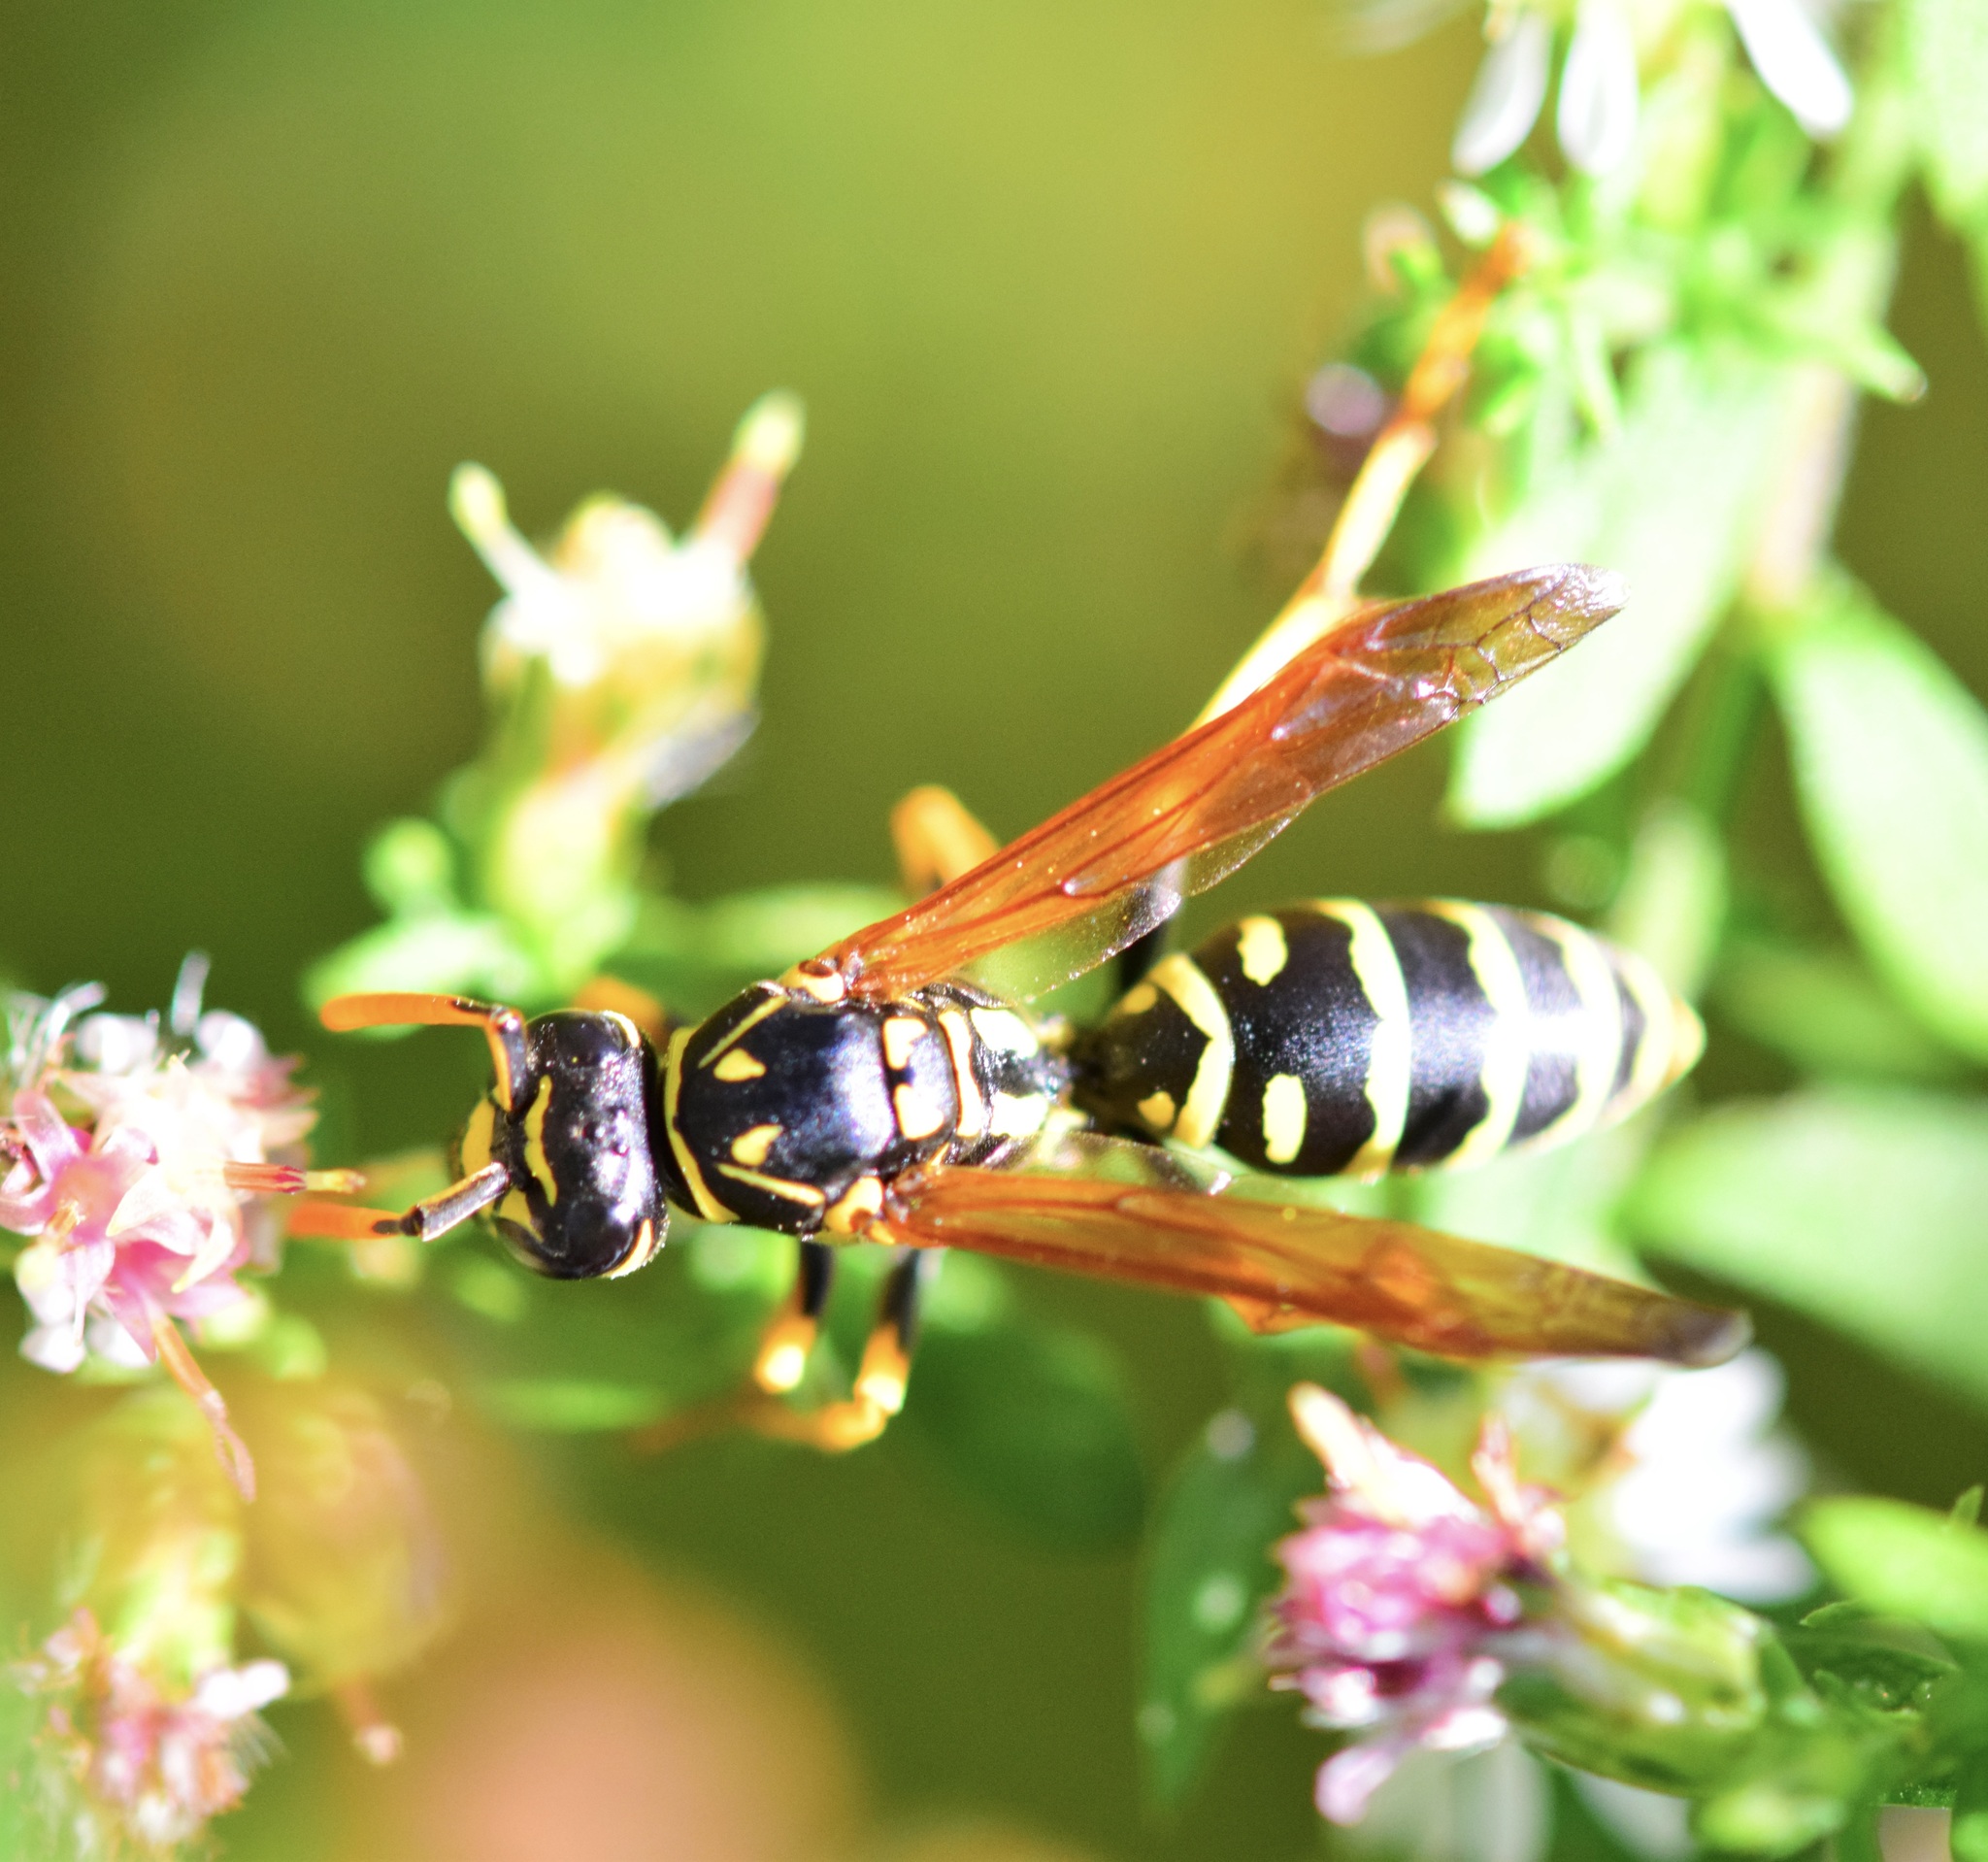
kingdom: Animalia
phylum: Arthropoda
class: Insecta
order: Hymenoptera
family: Eumenidae
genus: Polistes
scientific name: Polistes dominula
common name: Paper wasp
